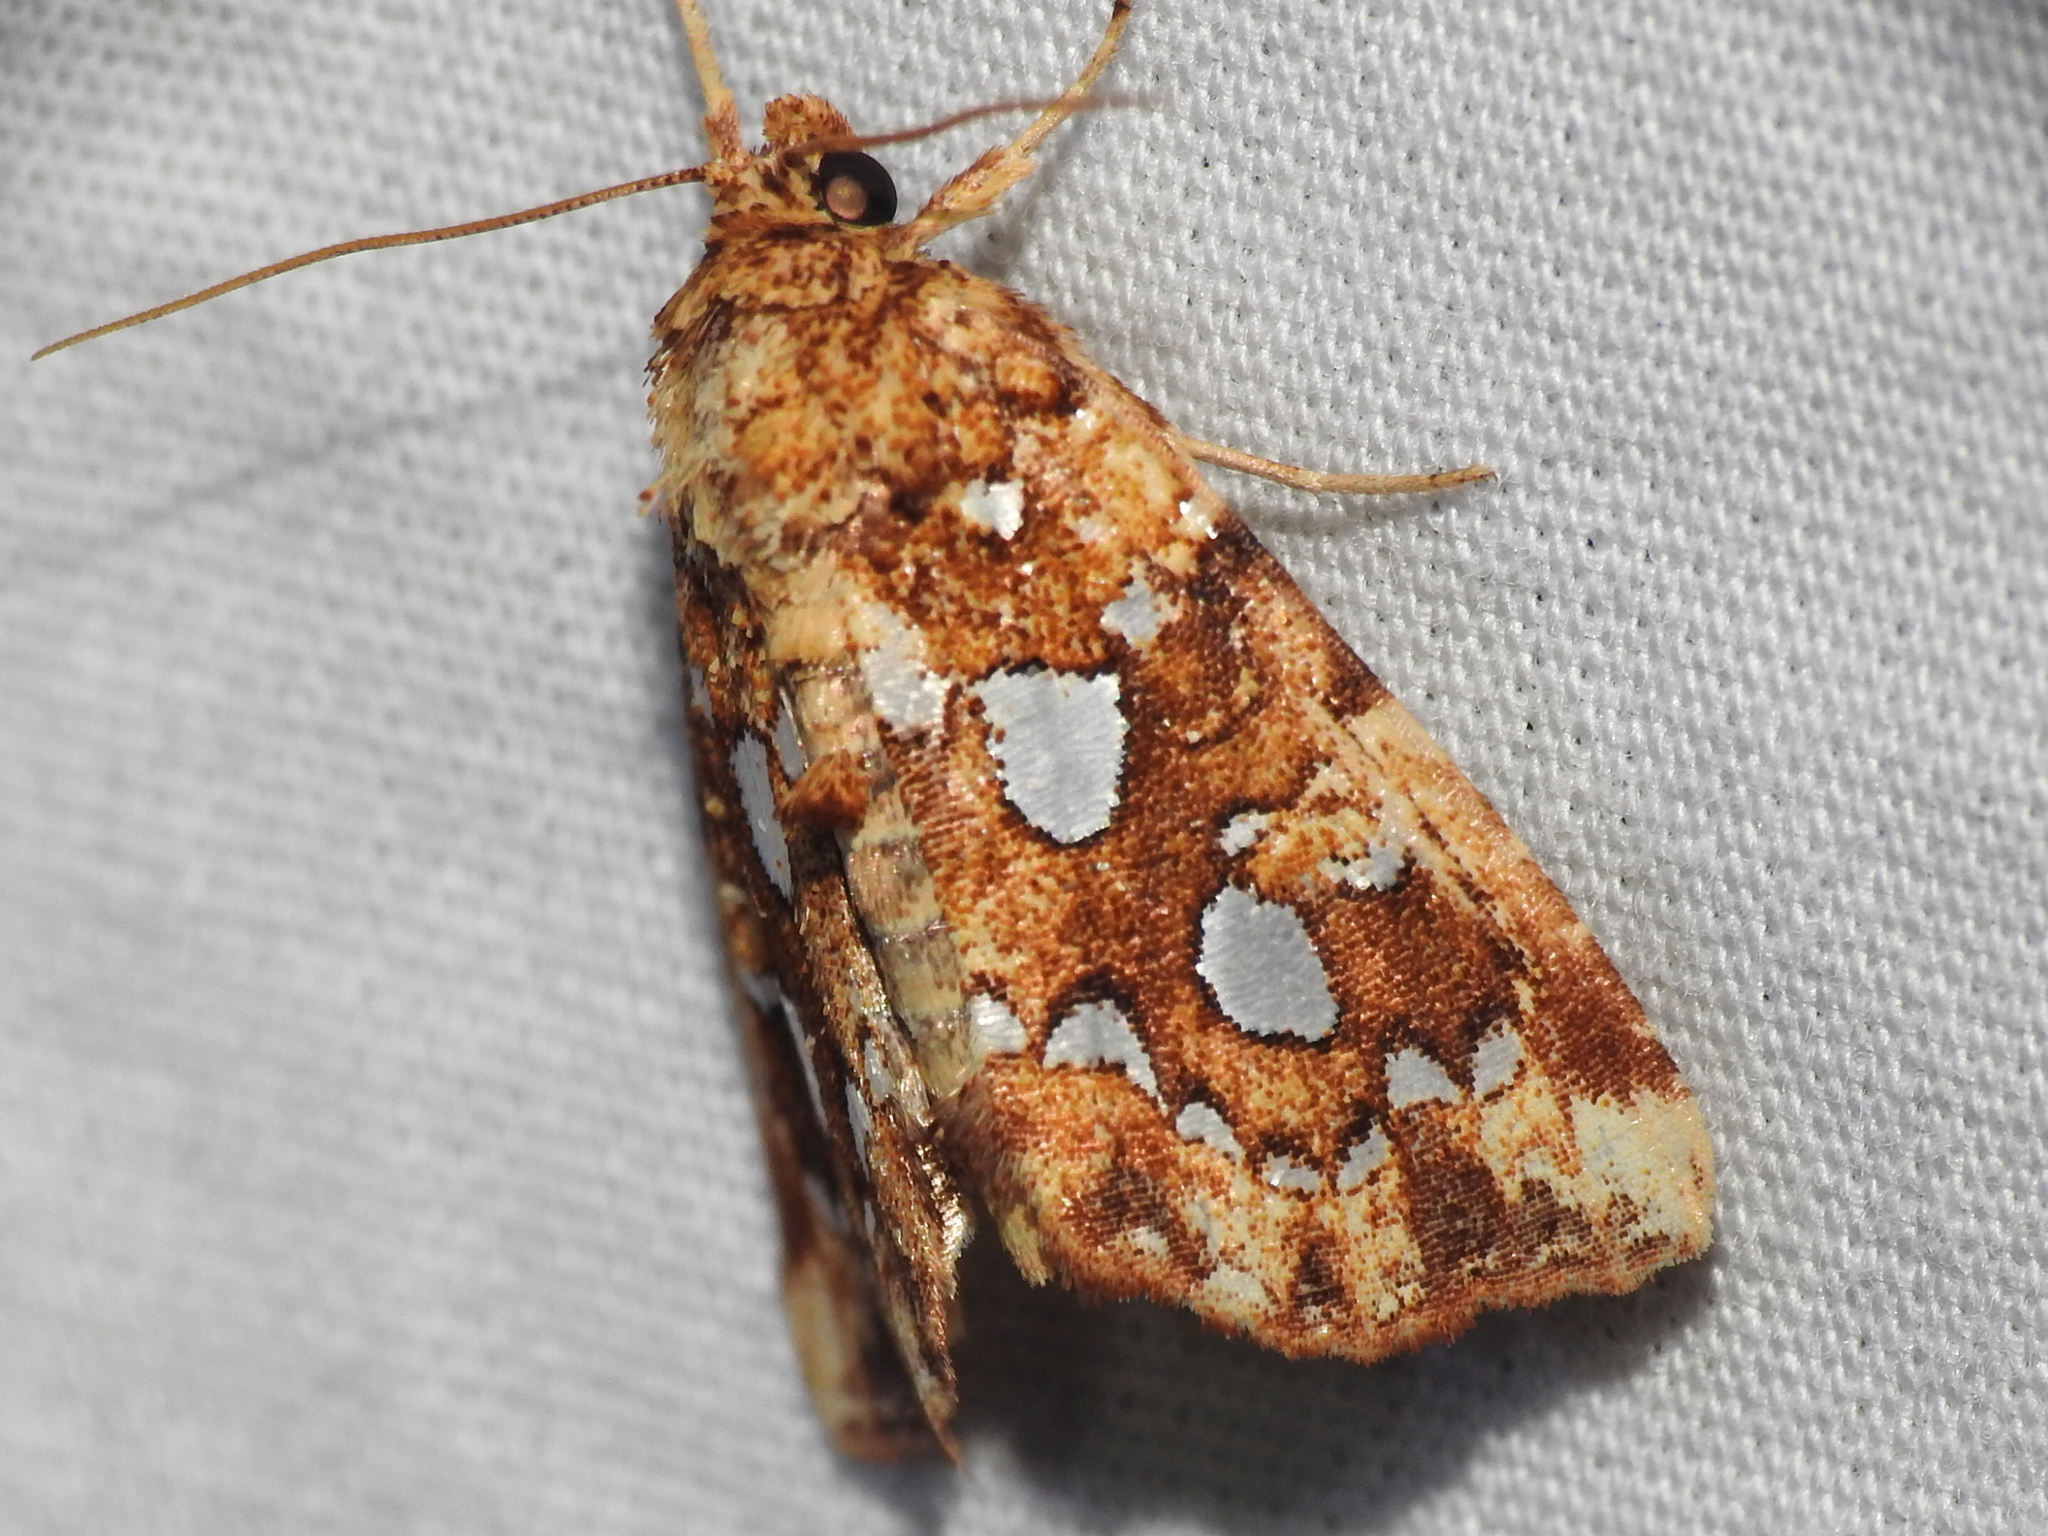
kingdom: Animalia
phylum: Arthropoda
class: Insecta
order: Lepidoptera
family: Noctuidae
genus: Callopistria
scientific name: Callopistria cordata
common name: Silver-spotted fern moth
